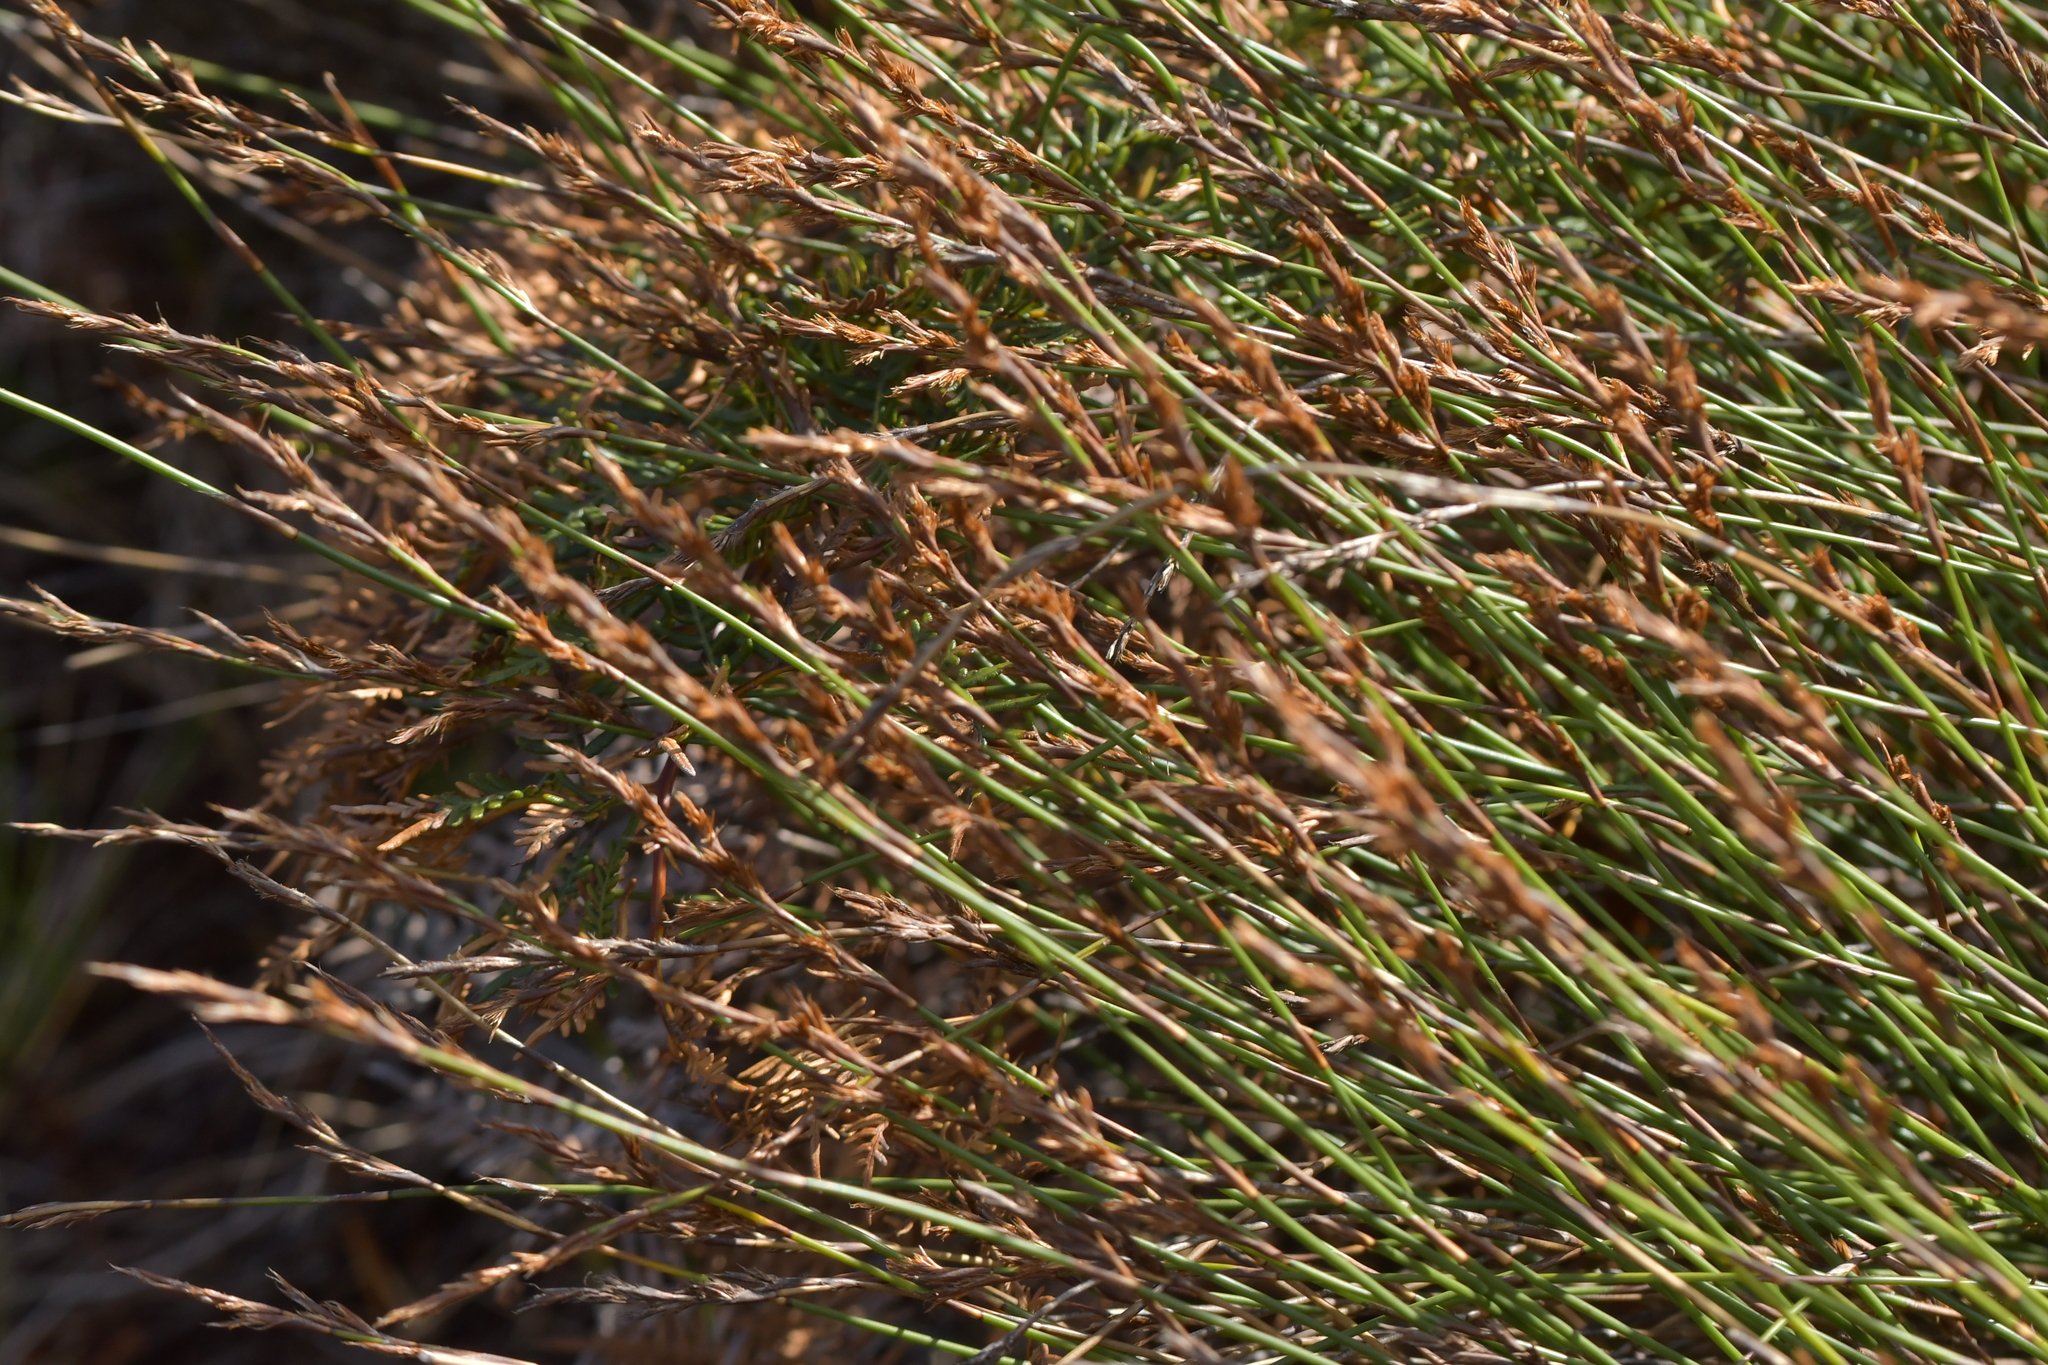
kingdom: Plantae
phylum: Tracheophyta
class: Liliopsida
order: Poales
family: Restionaceae
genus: Sporadanthus
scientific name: Sporadanthus traversii
